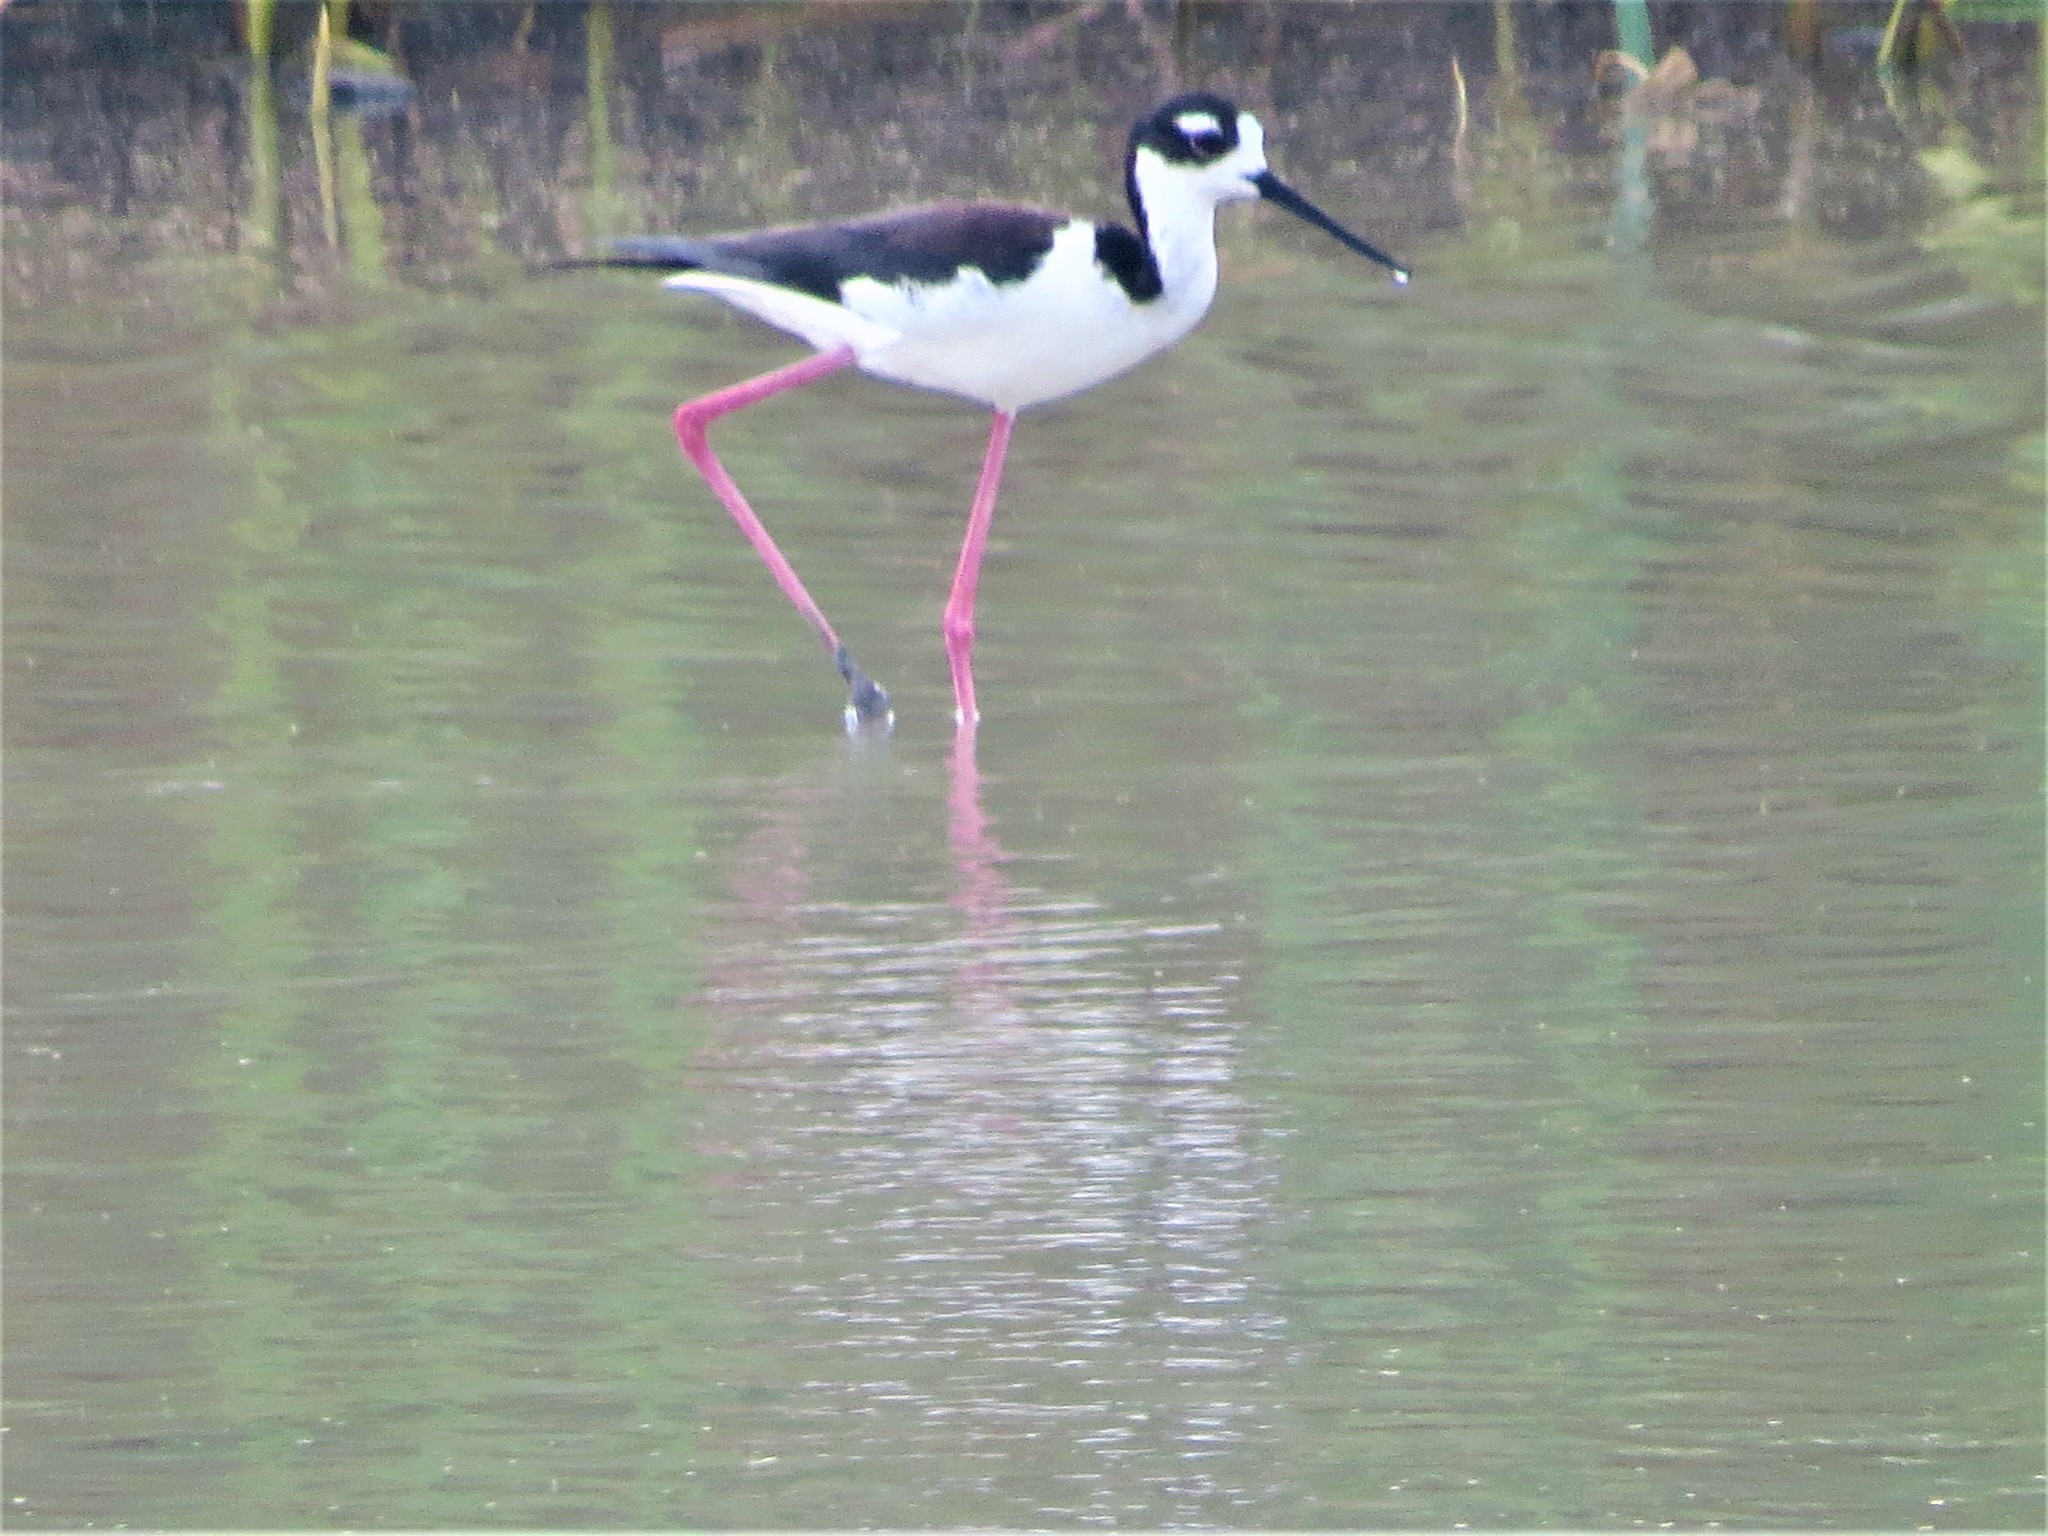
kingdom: Animalia
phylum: Chordata
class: Aves
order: Charadriiformes
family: Recurvirostridae
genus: Himantopus
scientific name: Himantopus mexicanus
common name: Black-necked stilt
